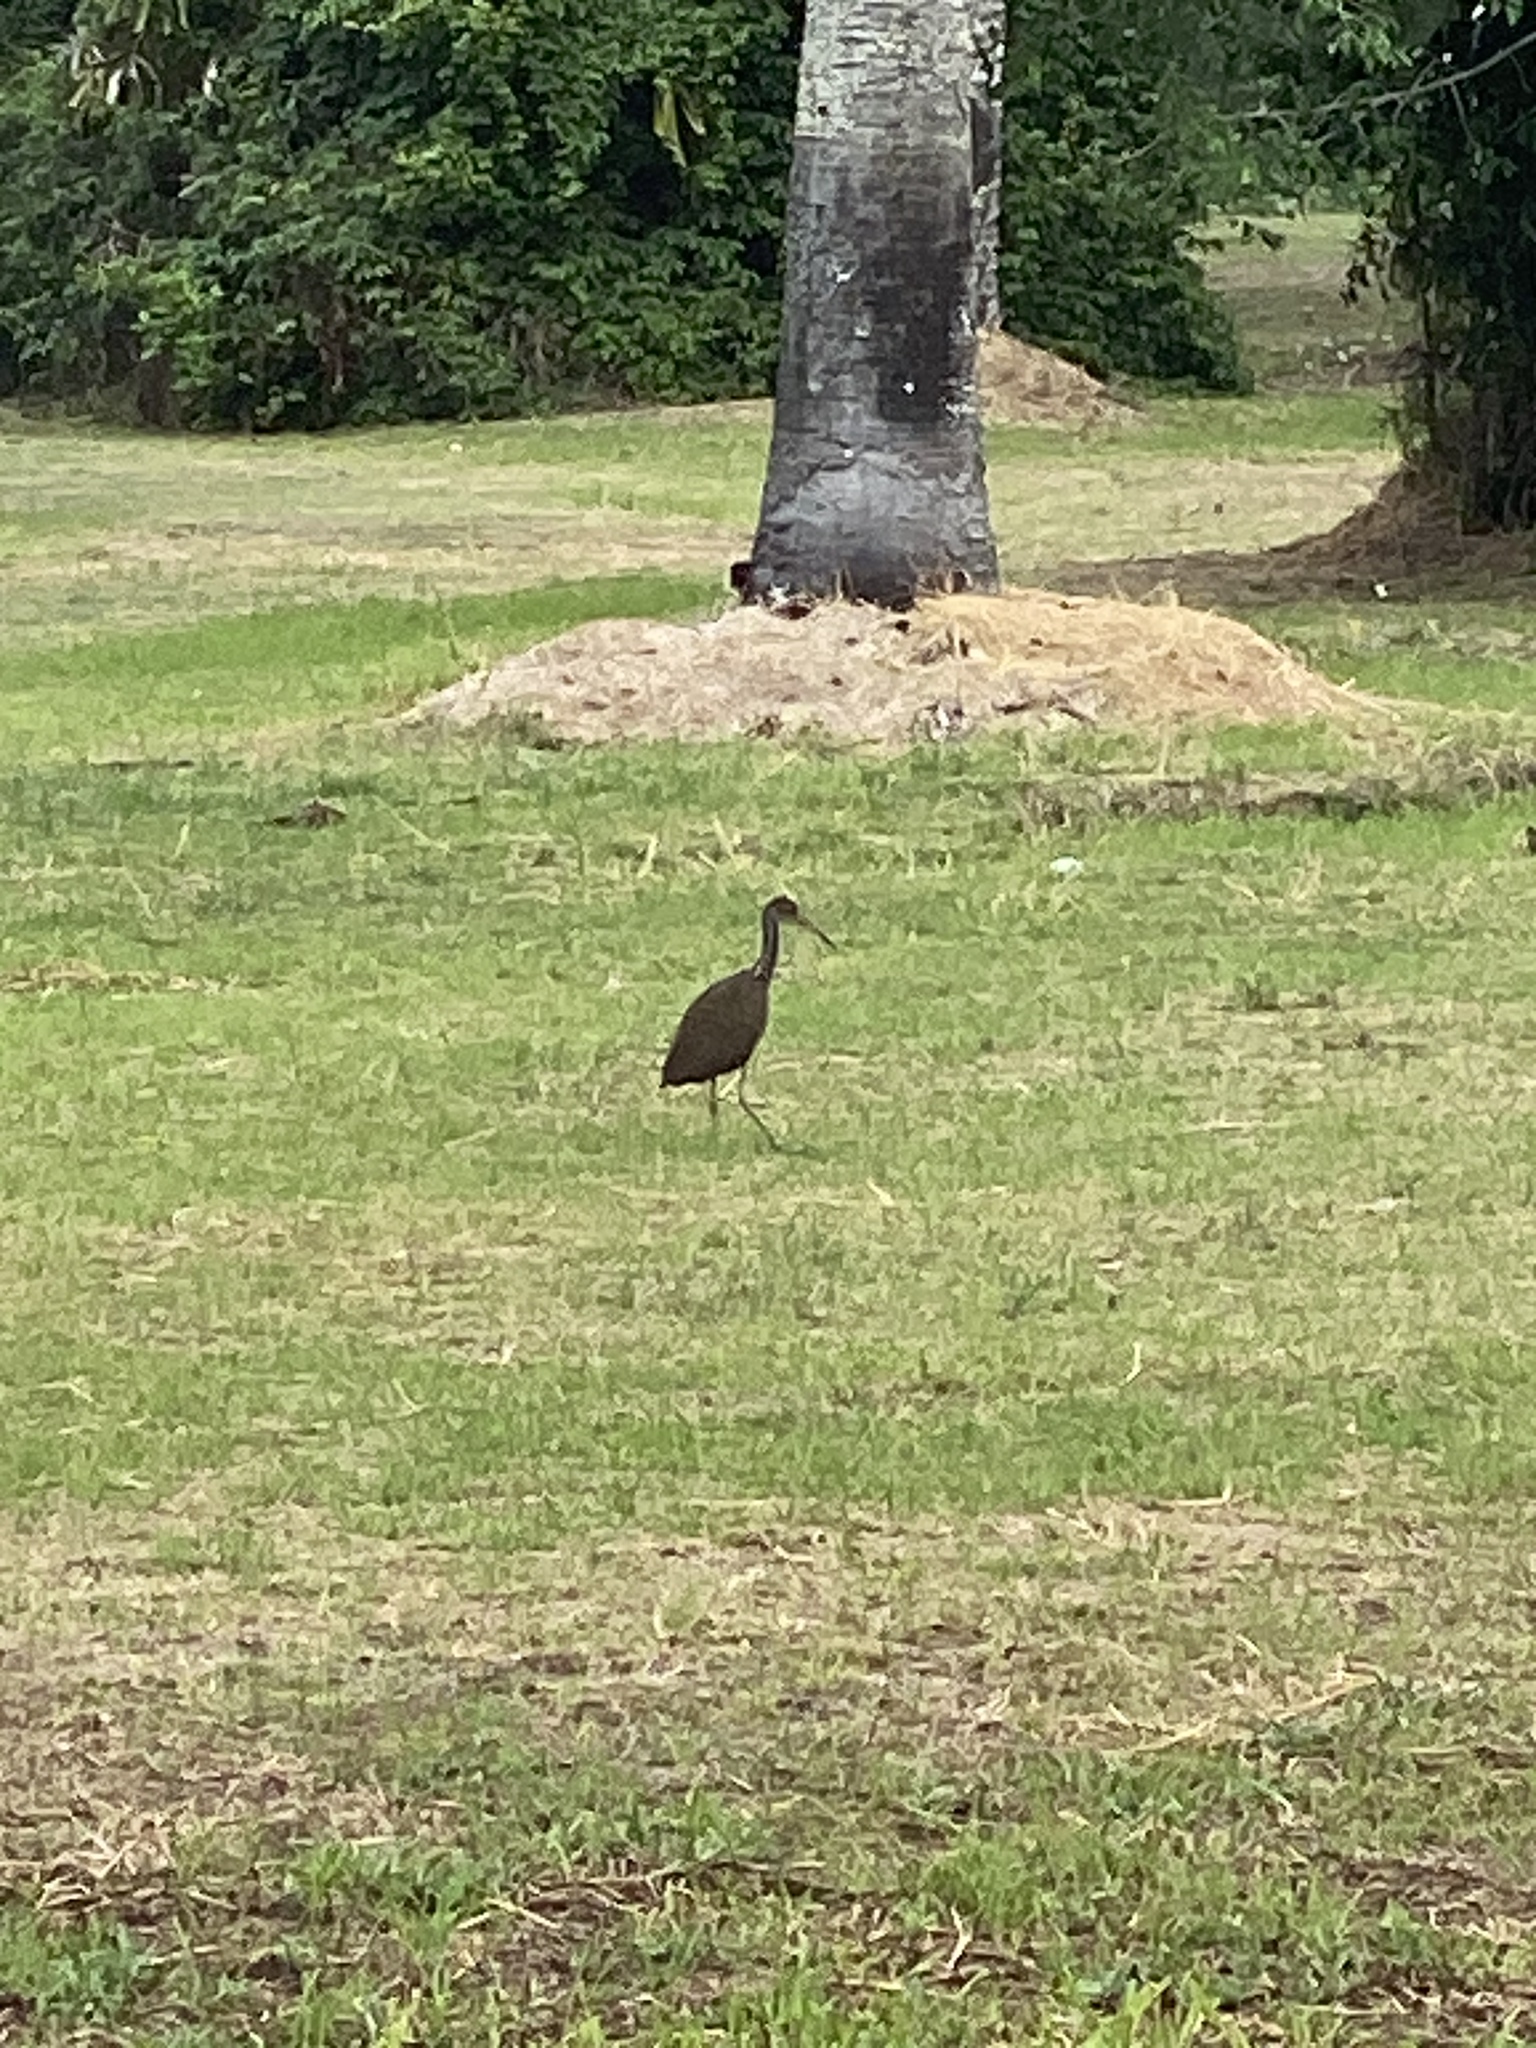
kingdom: Animalia
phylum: Chordata
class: Aves
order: Gruiformes
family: Aramidae
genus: Aramus
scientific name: Aramus guarauna
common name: Limpkin
